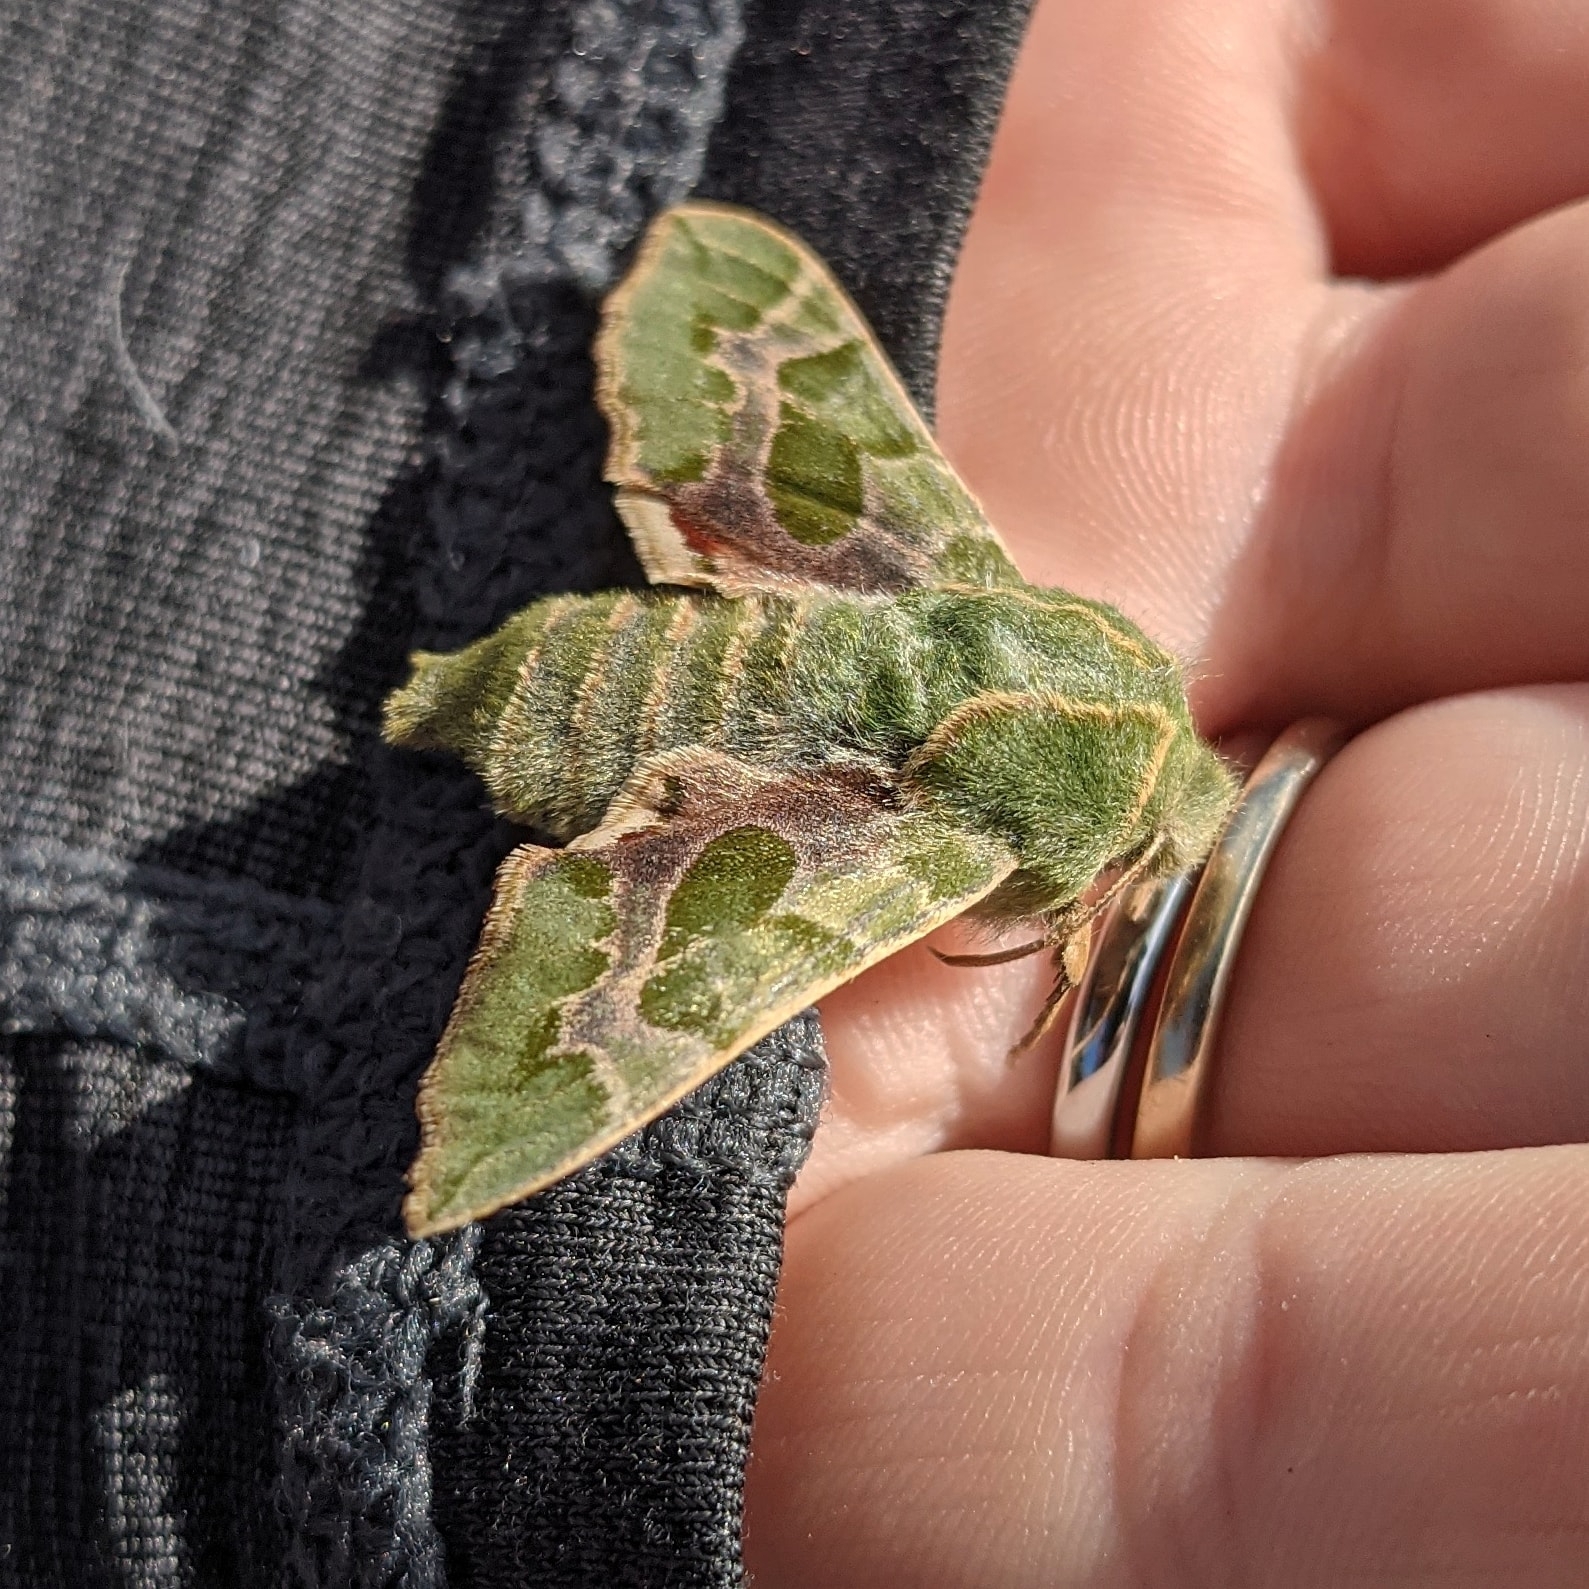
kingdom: Animalia
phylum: Arthropoda
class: Insecta
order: Lepidoptera
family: Sphingidae
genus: Proserpinus
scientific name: Proserpinus lucidus
